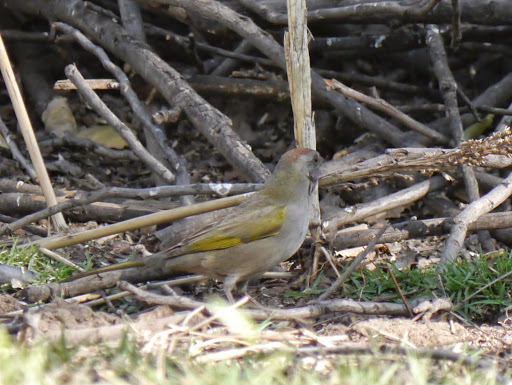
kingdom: Animalia
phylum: Chordata
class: Aves
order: Passeriformes
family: Passerellidae
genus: Pipilo
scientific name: Pipilo chlorurus
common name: Green-tailed towhee
